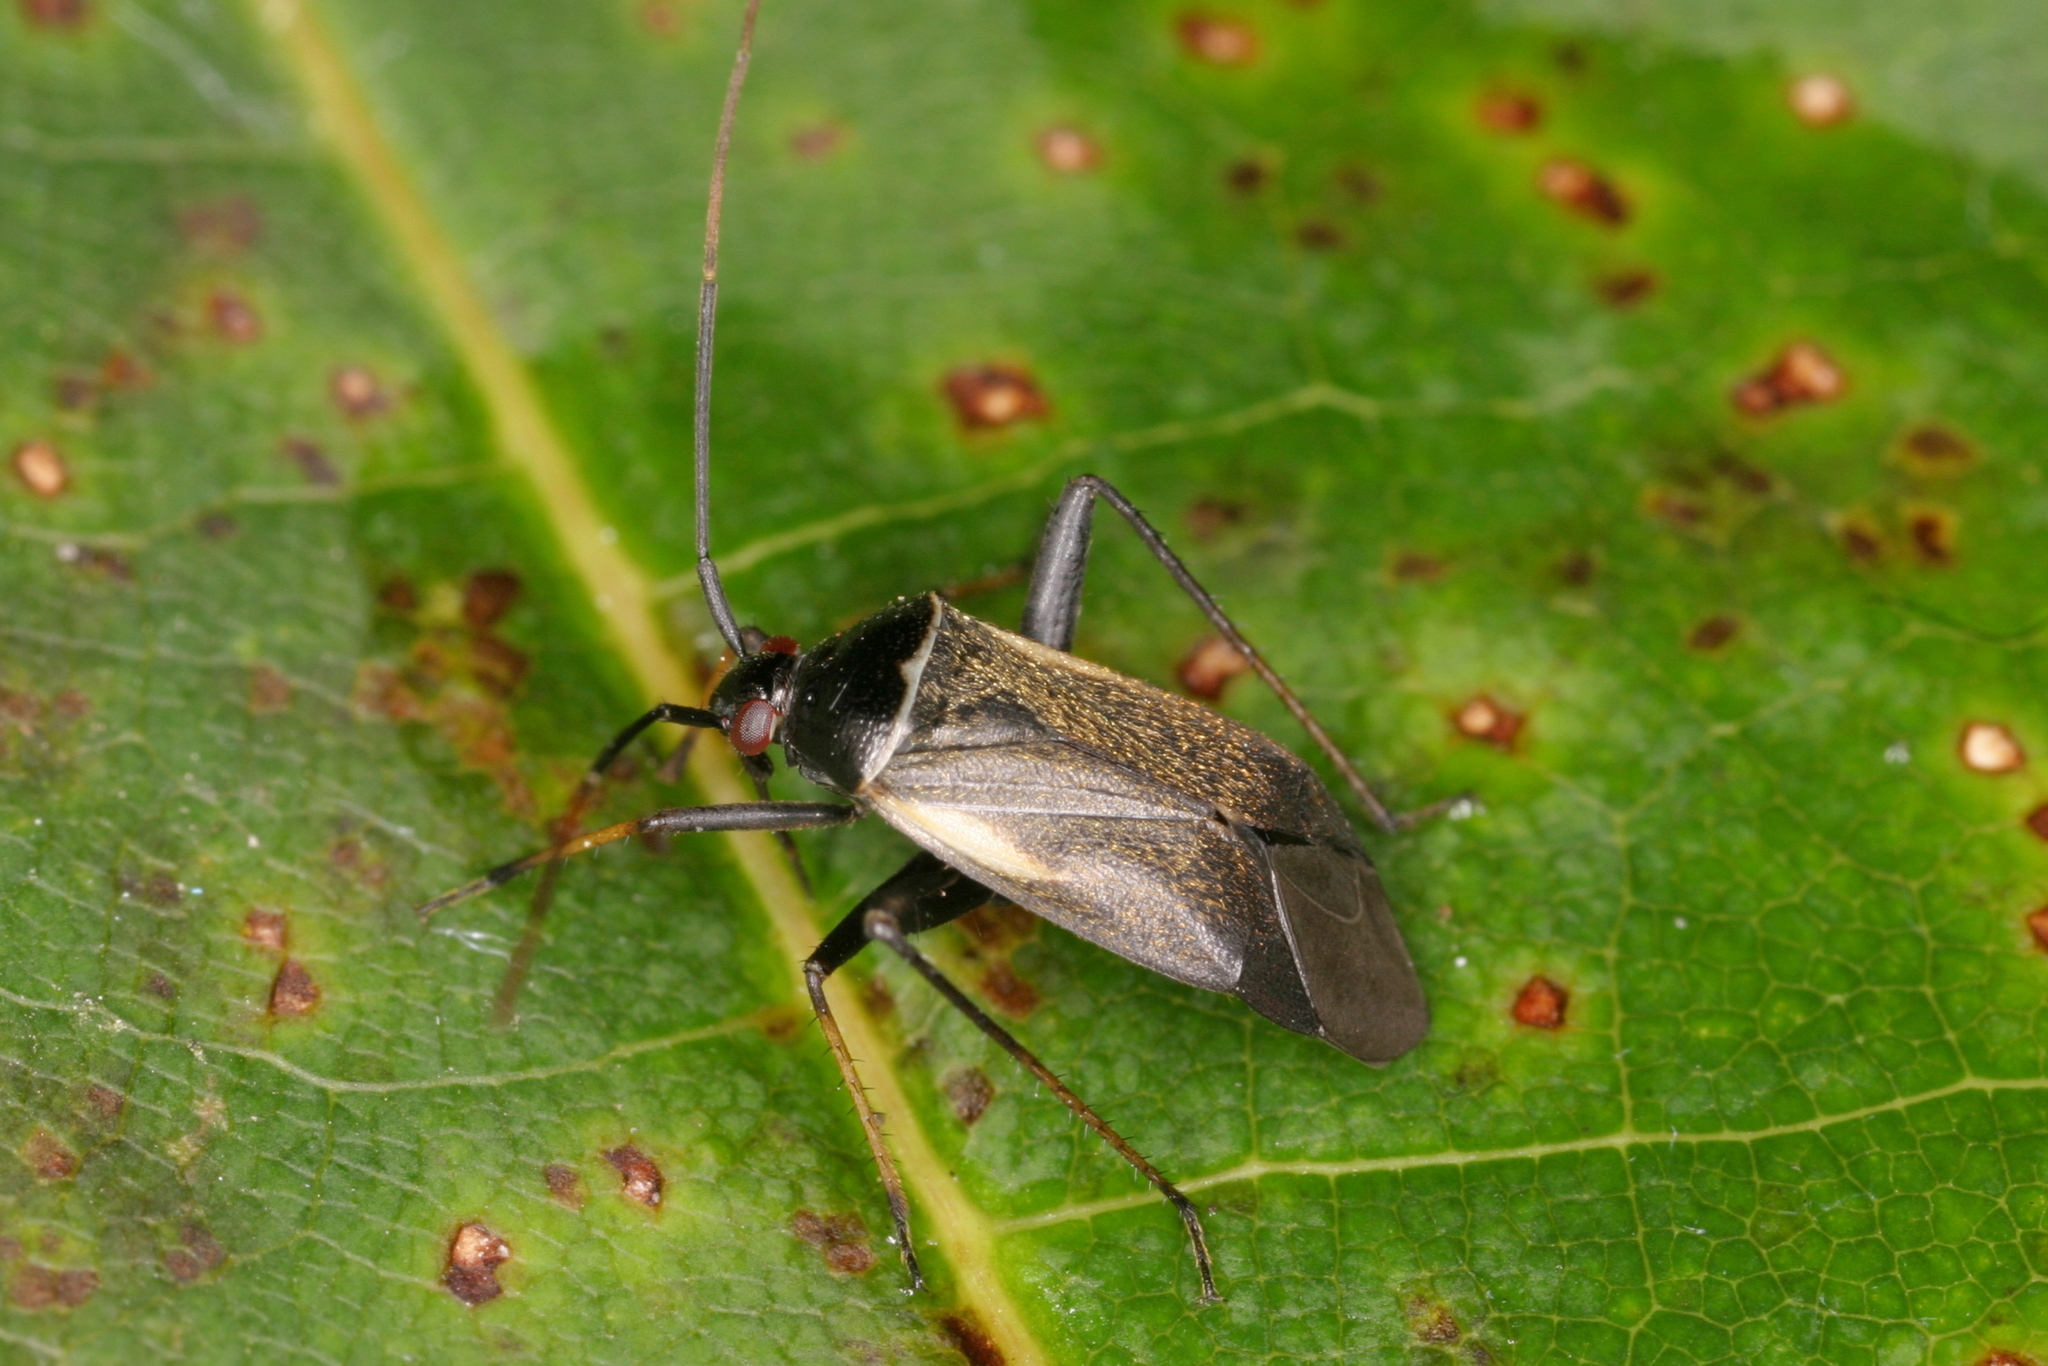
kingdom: Animalia
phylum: Arthropoda
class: Insecta
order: Hemiptera
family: Miridae
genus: Adelphocoris
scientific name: Adelphocoris seticornis
